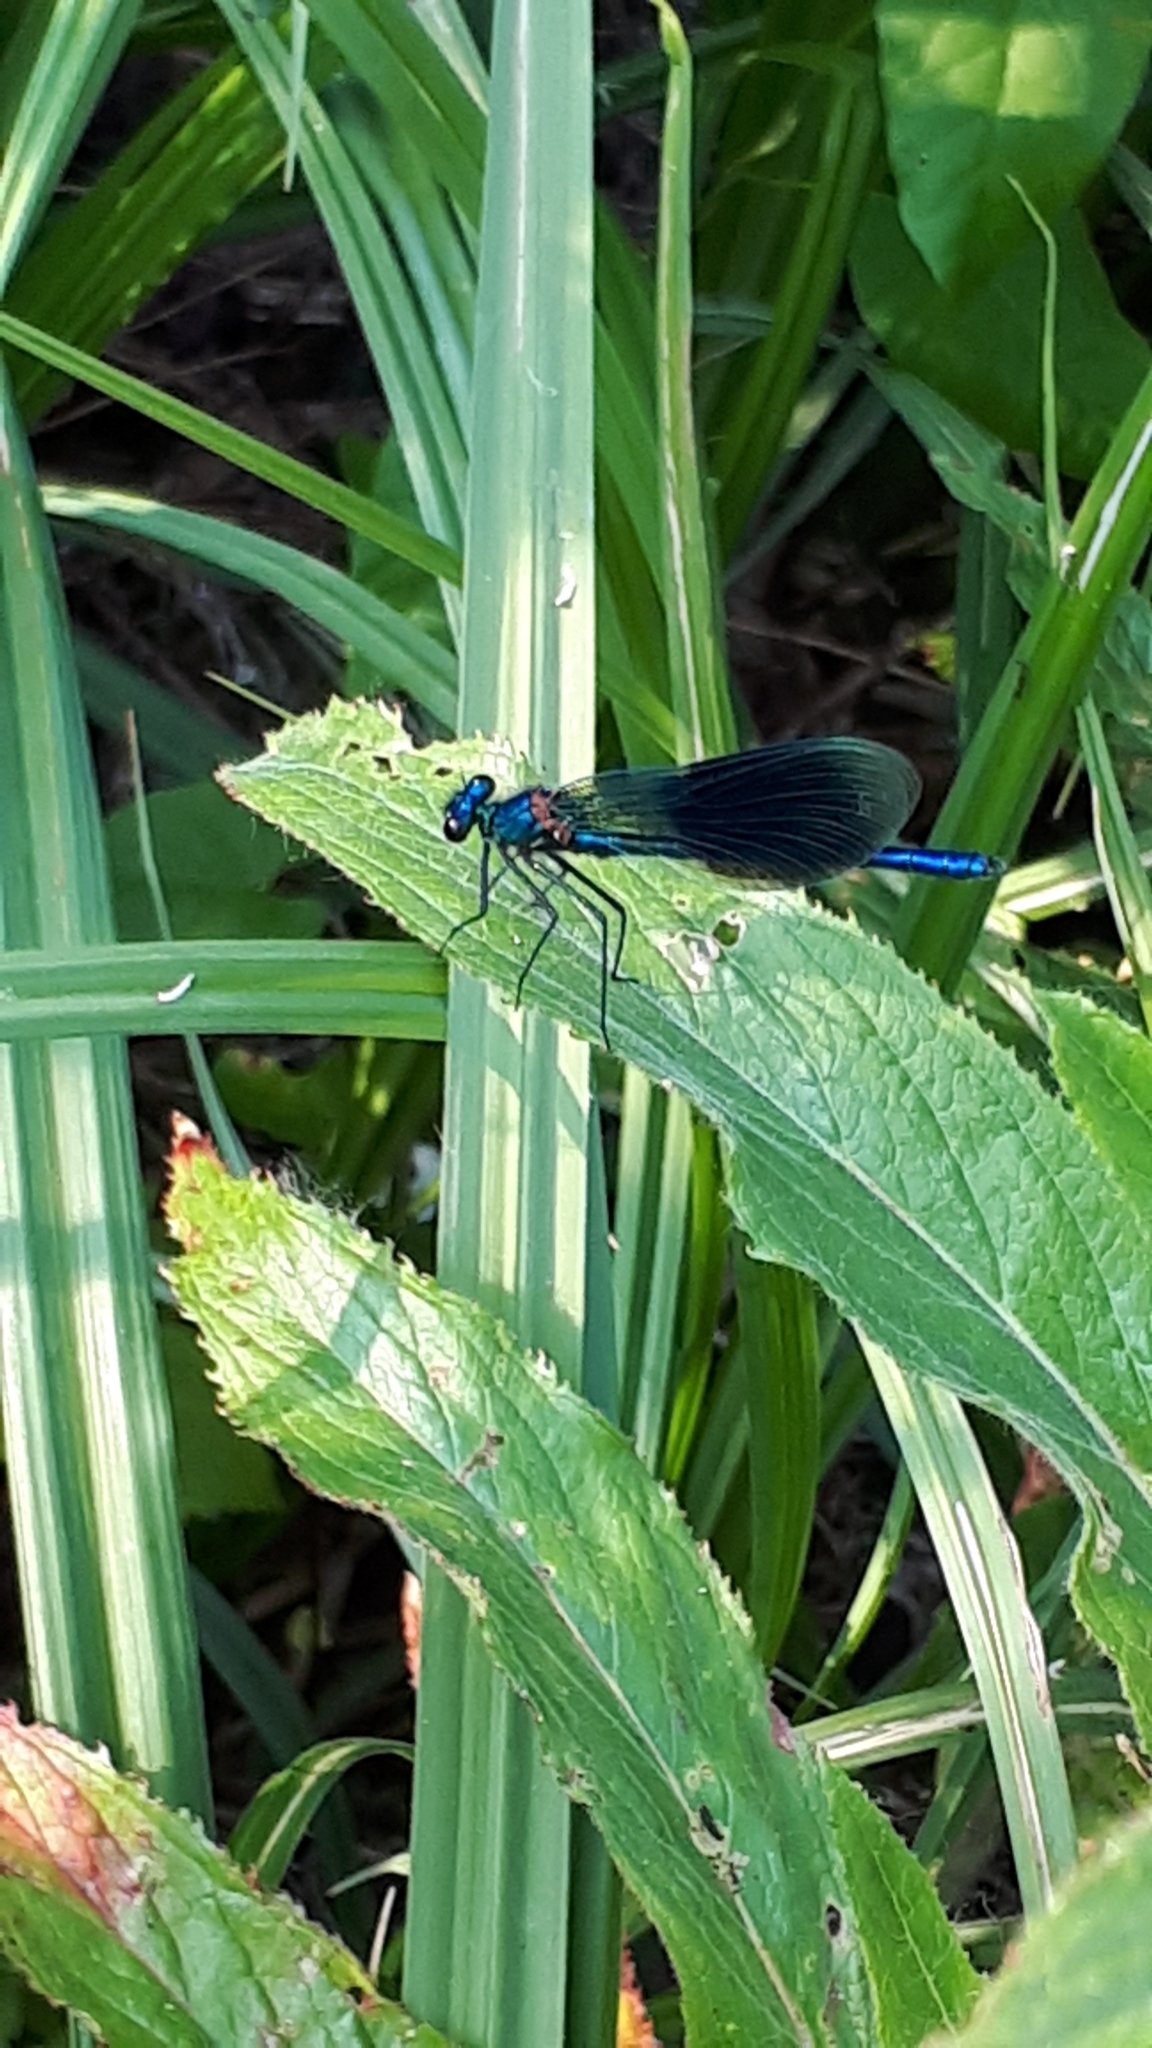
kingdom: Animalia
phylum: Arthropoda
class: Insecta
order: Odonata
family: Calopterygidae
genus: Calopteryx
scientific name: Calopteryx splendens
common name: Banded demoiselle
